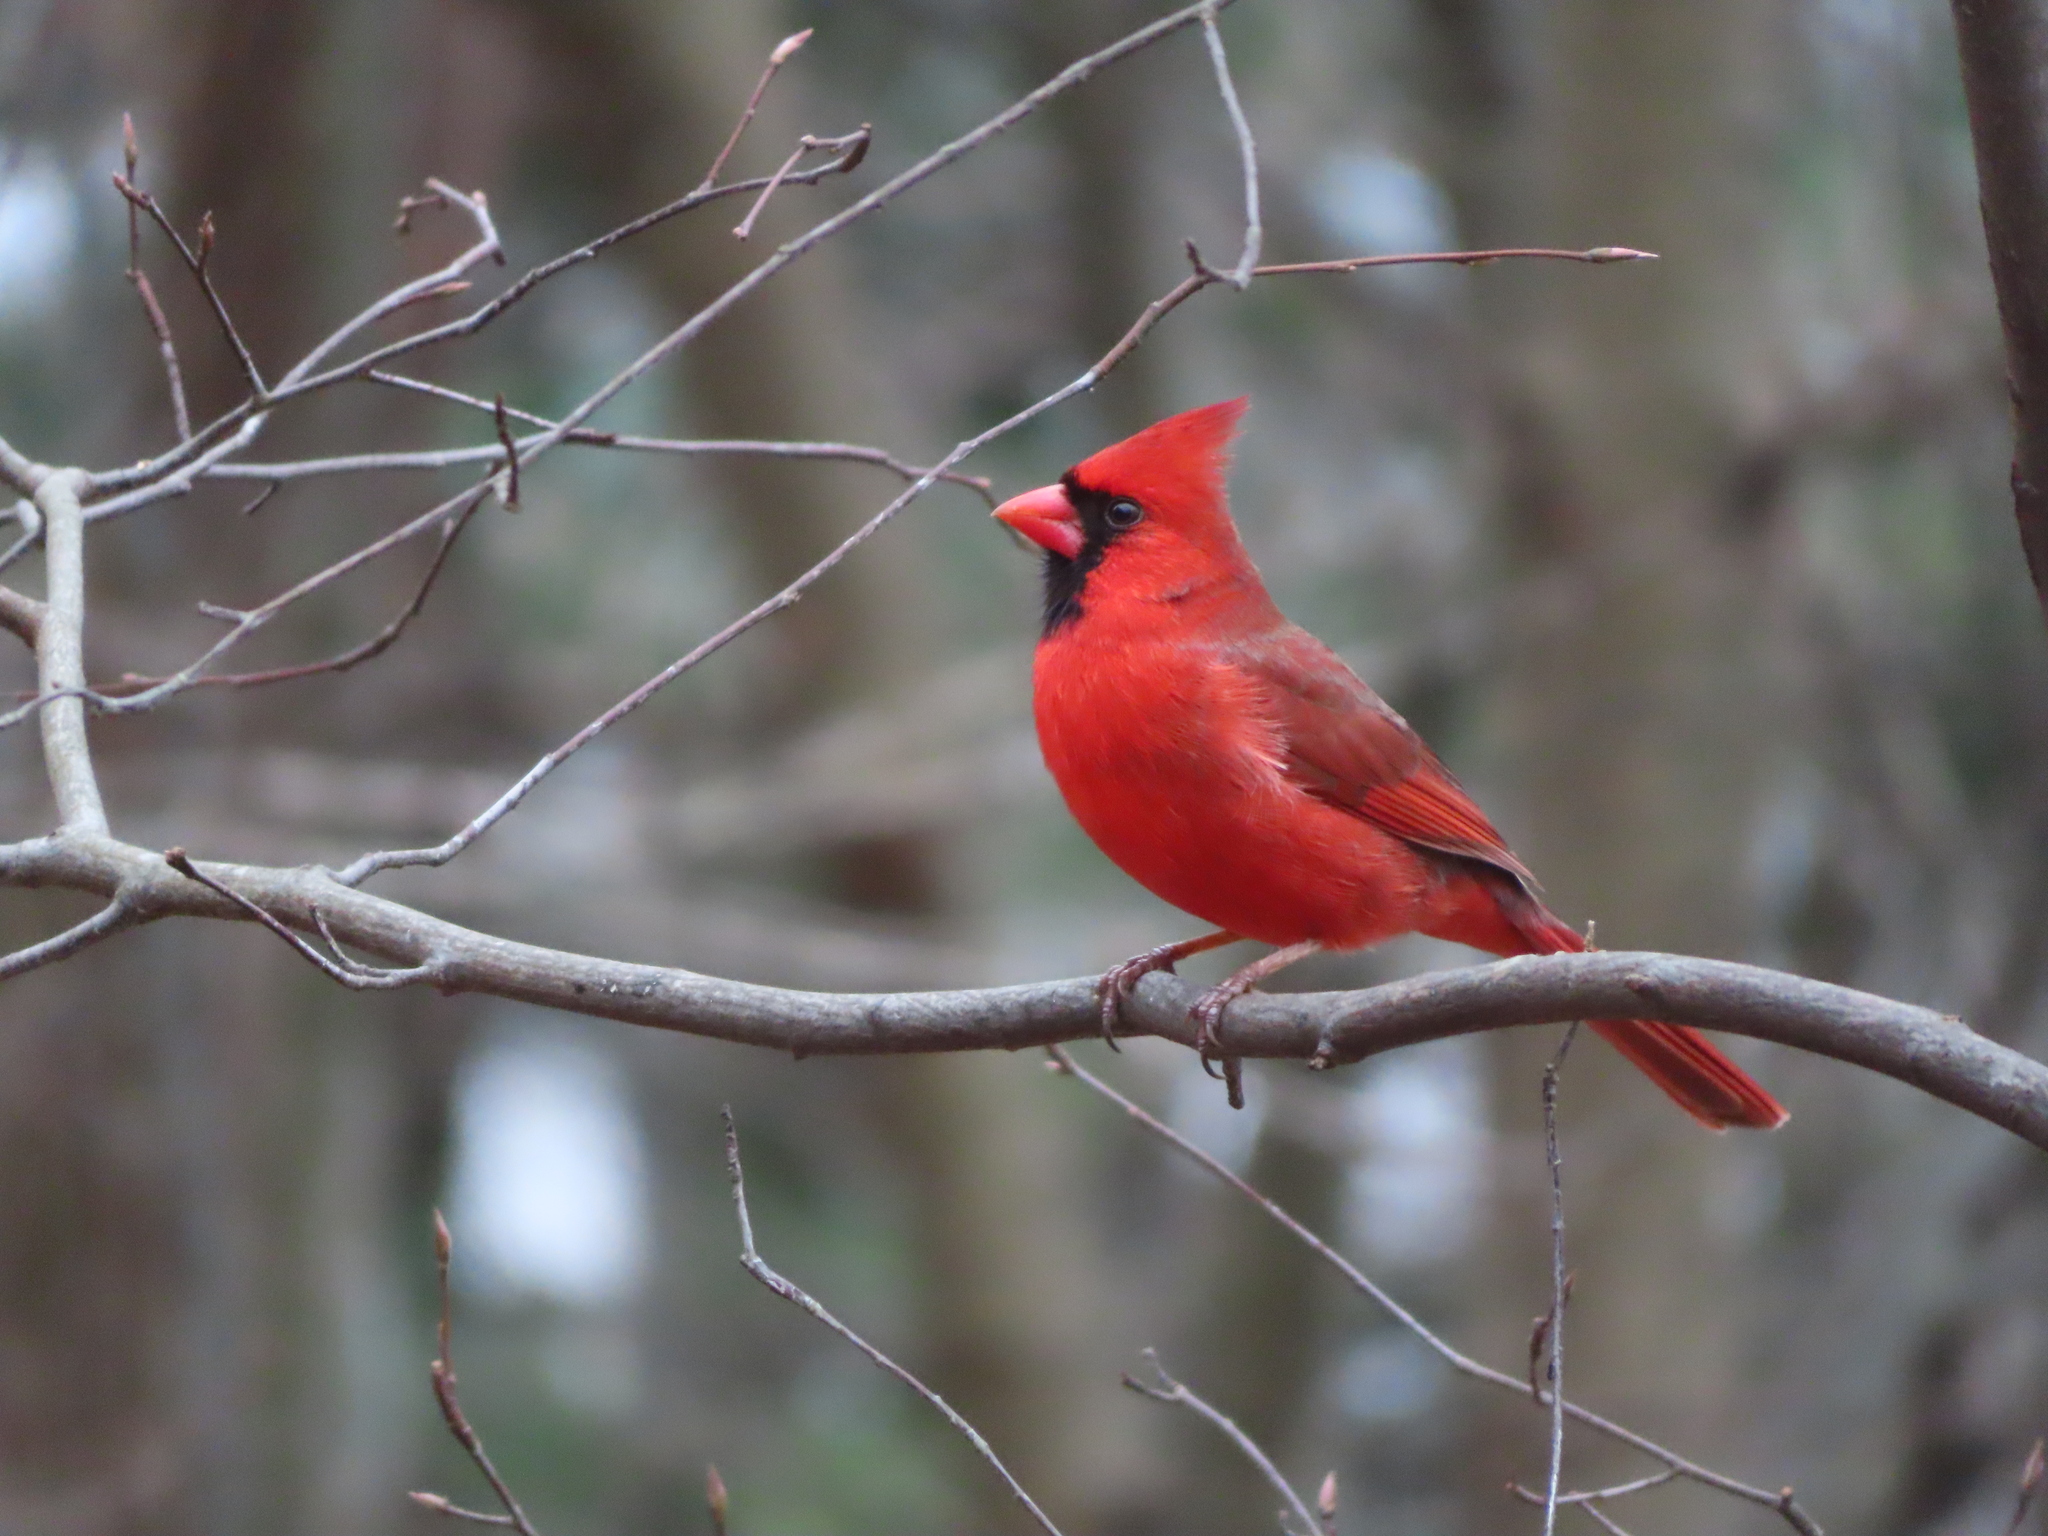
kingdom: Animalia
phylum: Chordata
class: Aves
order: Passeriformes
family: Cardinalidae
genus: Cardinalis
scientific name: Cardinalis cardinalis
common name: Northern cardinal
